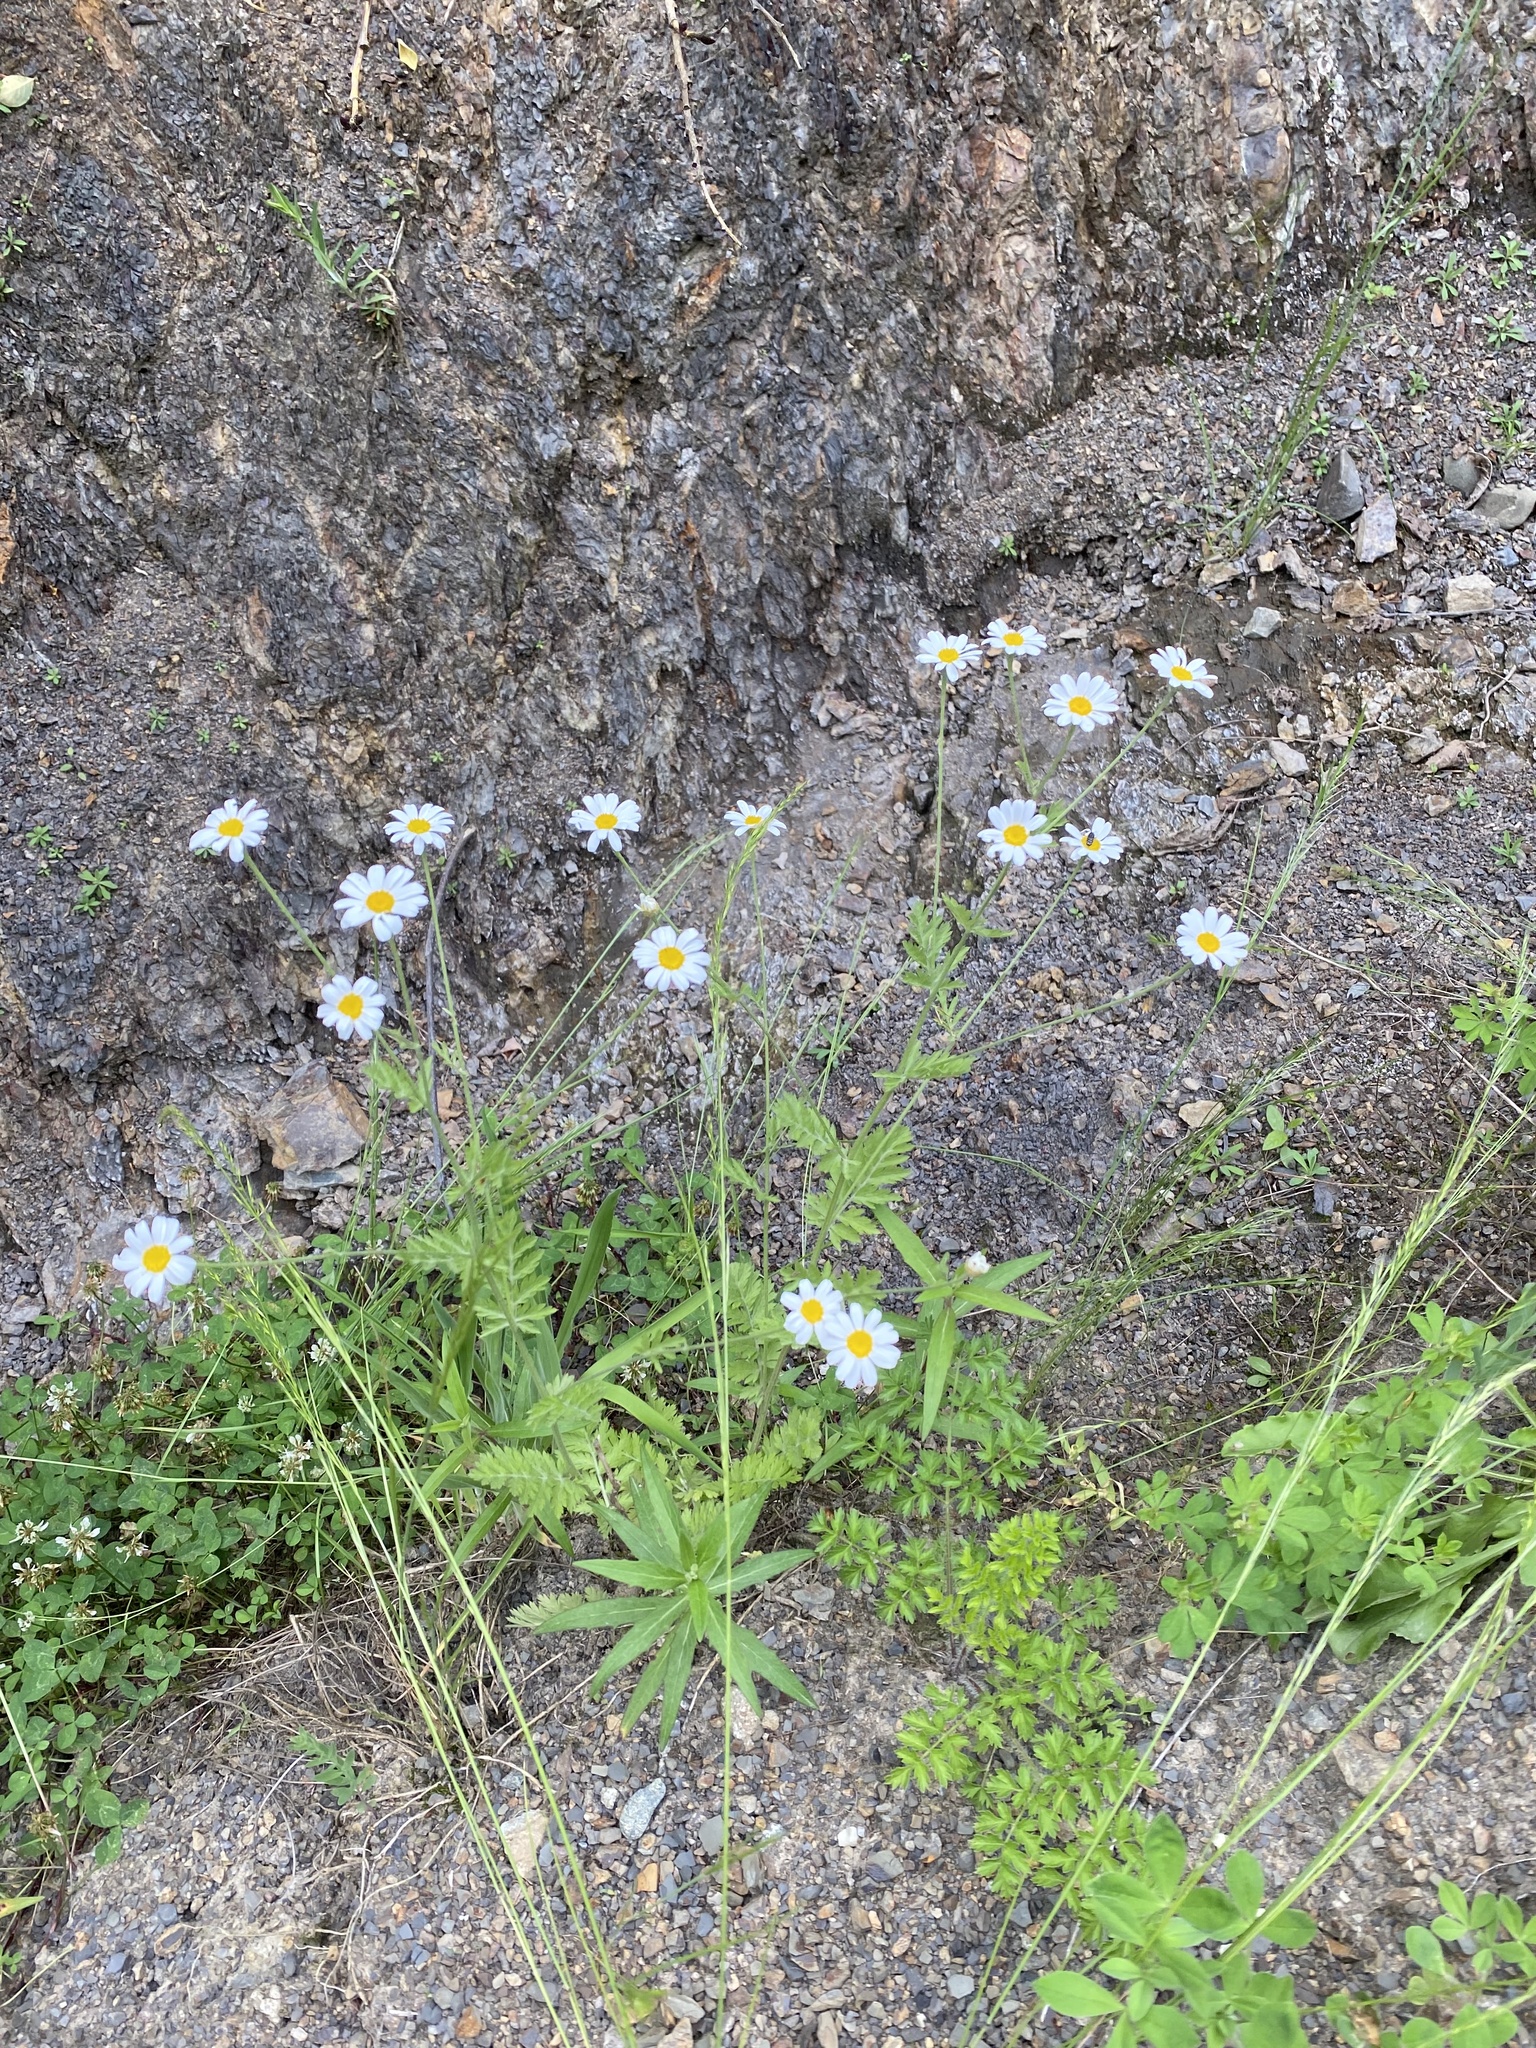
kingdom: Plantae
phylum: Tracheophyta
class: Magnoliopsida
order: Asterales
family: Asteraceae
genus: Tanacetum
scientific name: Tanacetum partheniifolium
